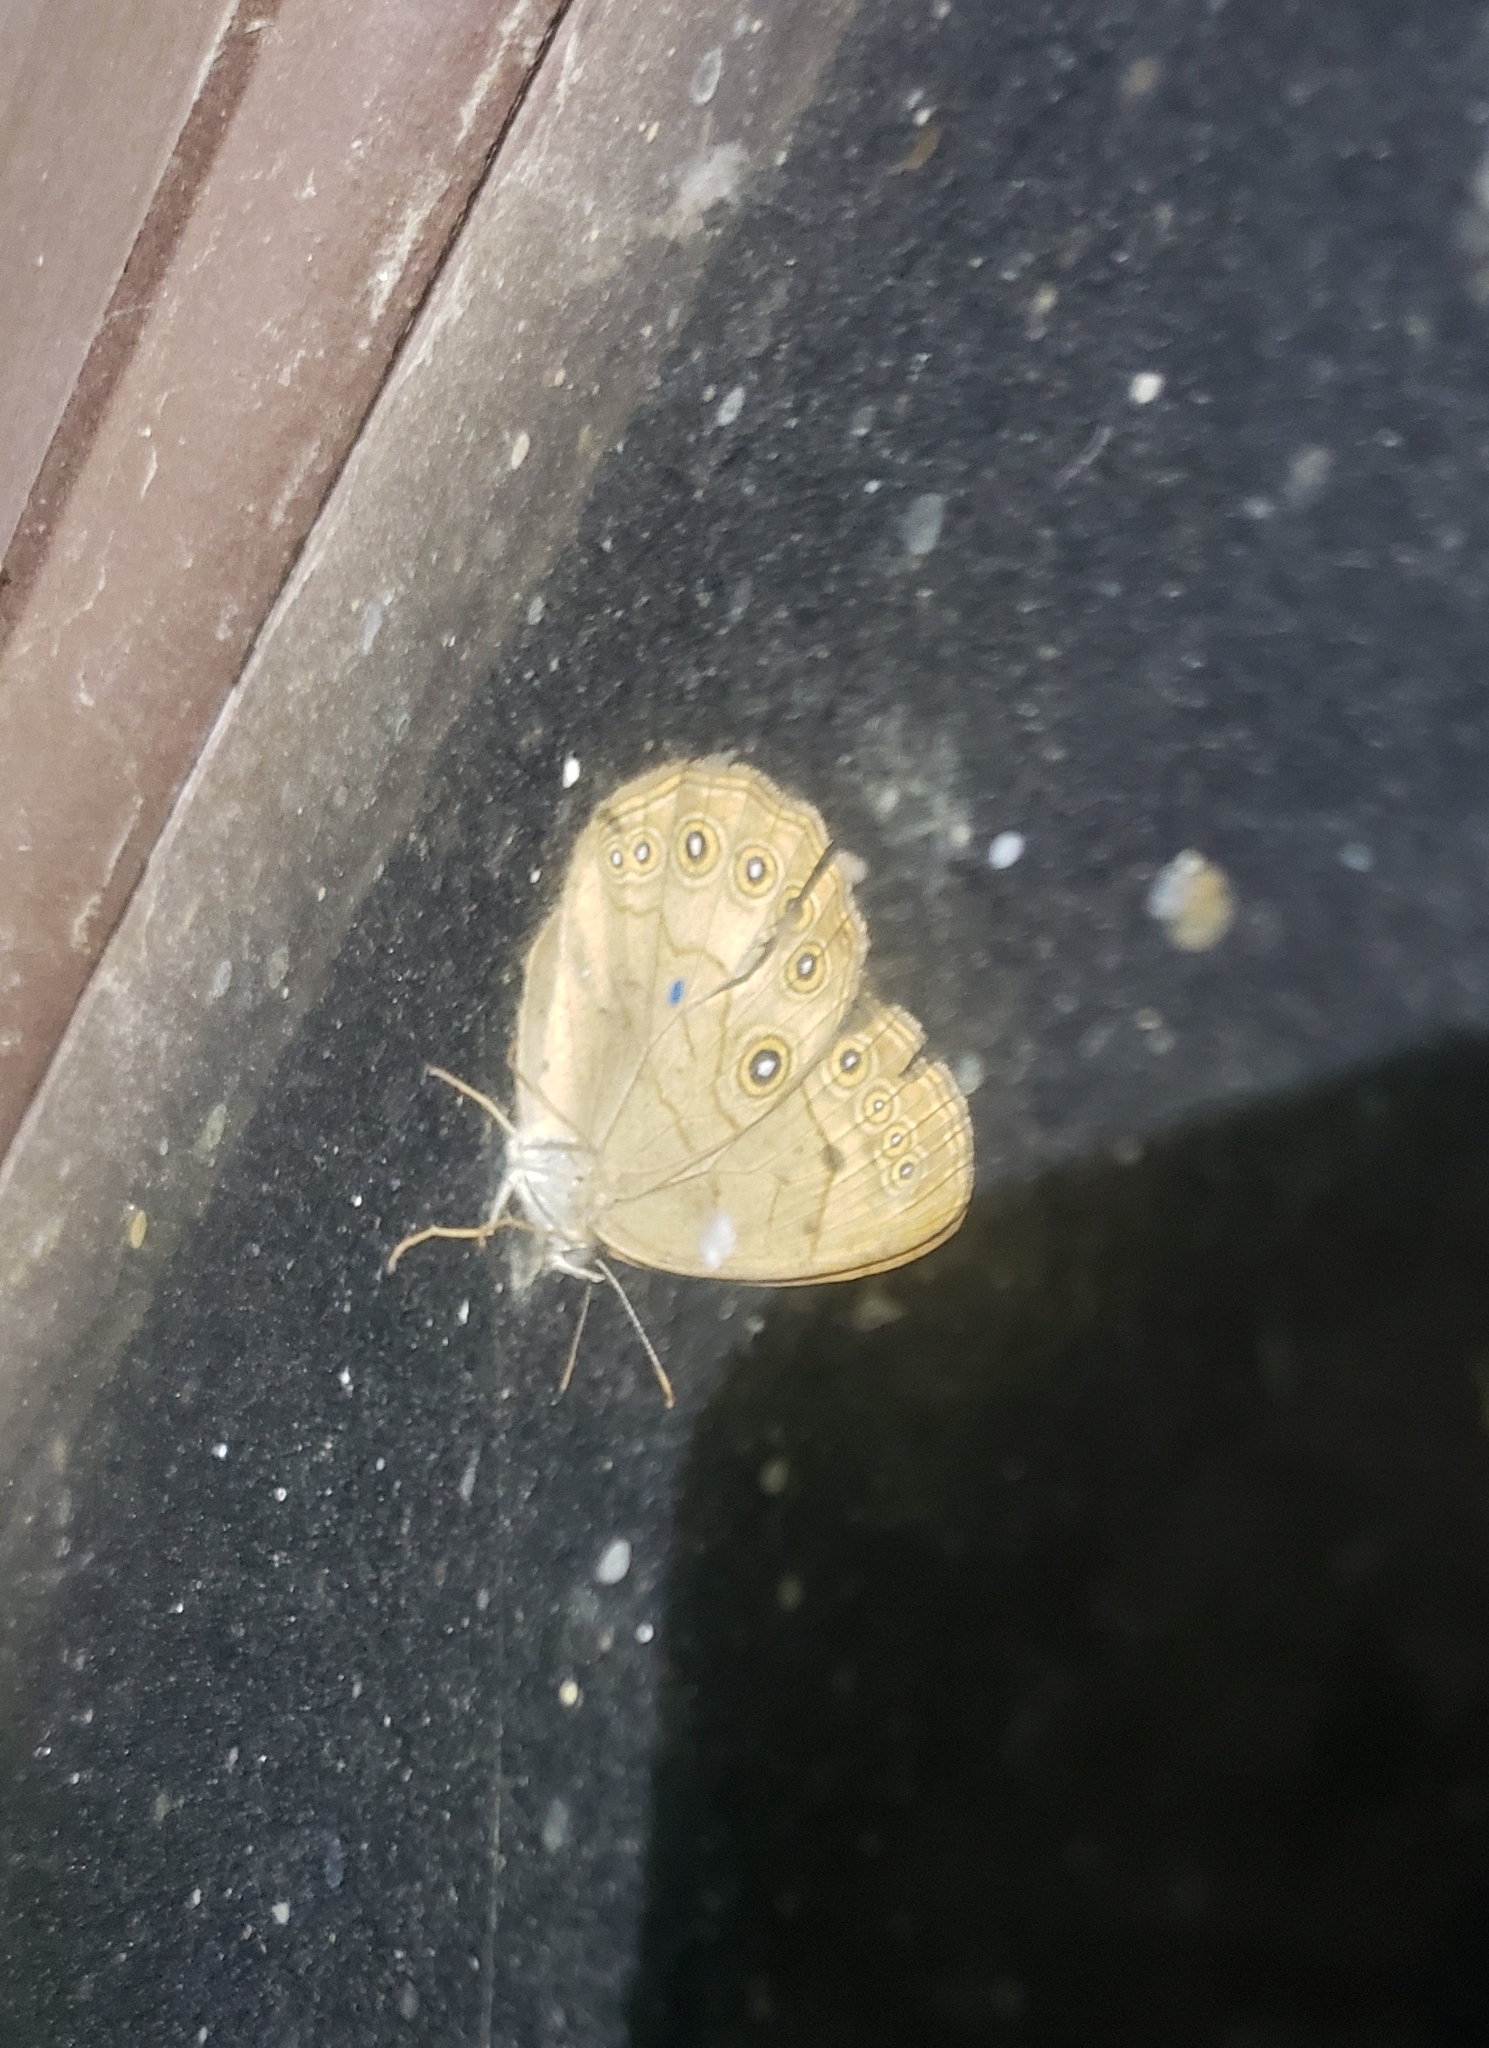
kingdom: Animalia
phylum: Arthropoda
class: Insecta
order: Lepidoptera
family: Nymphalidae
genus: Lethe
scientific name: Lethe eurydice
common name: Eyed brown
